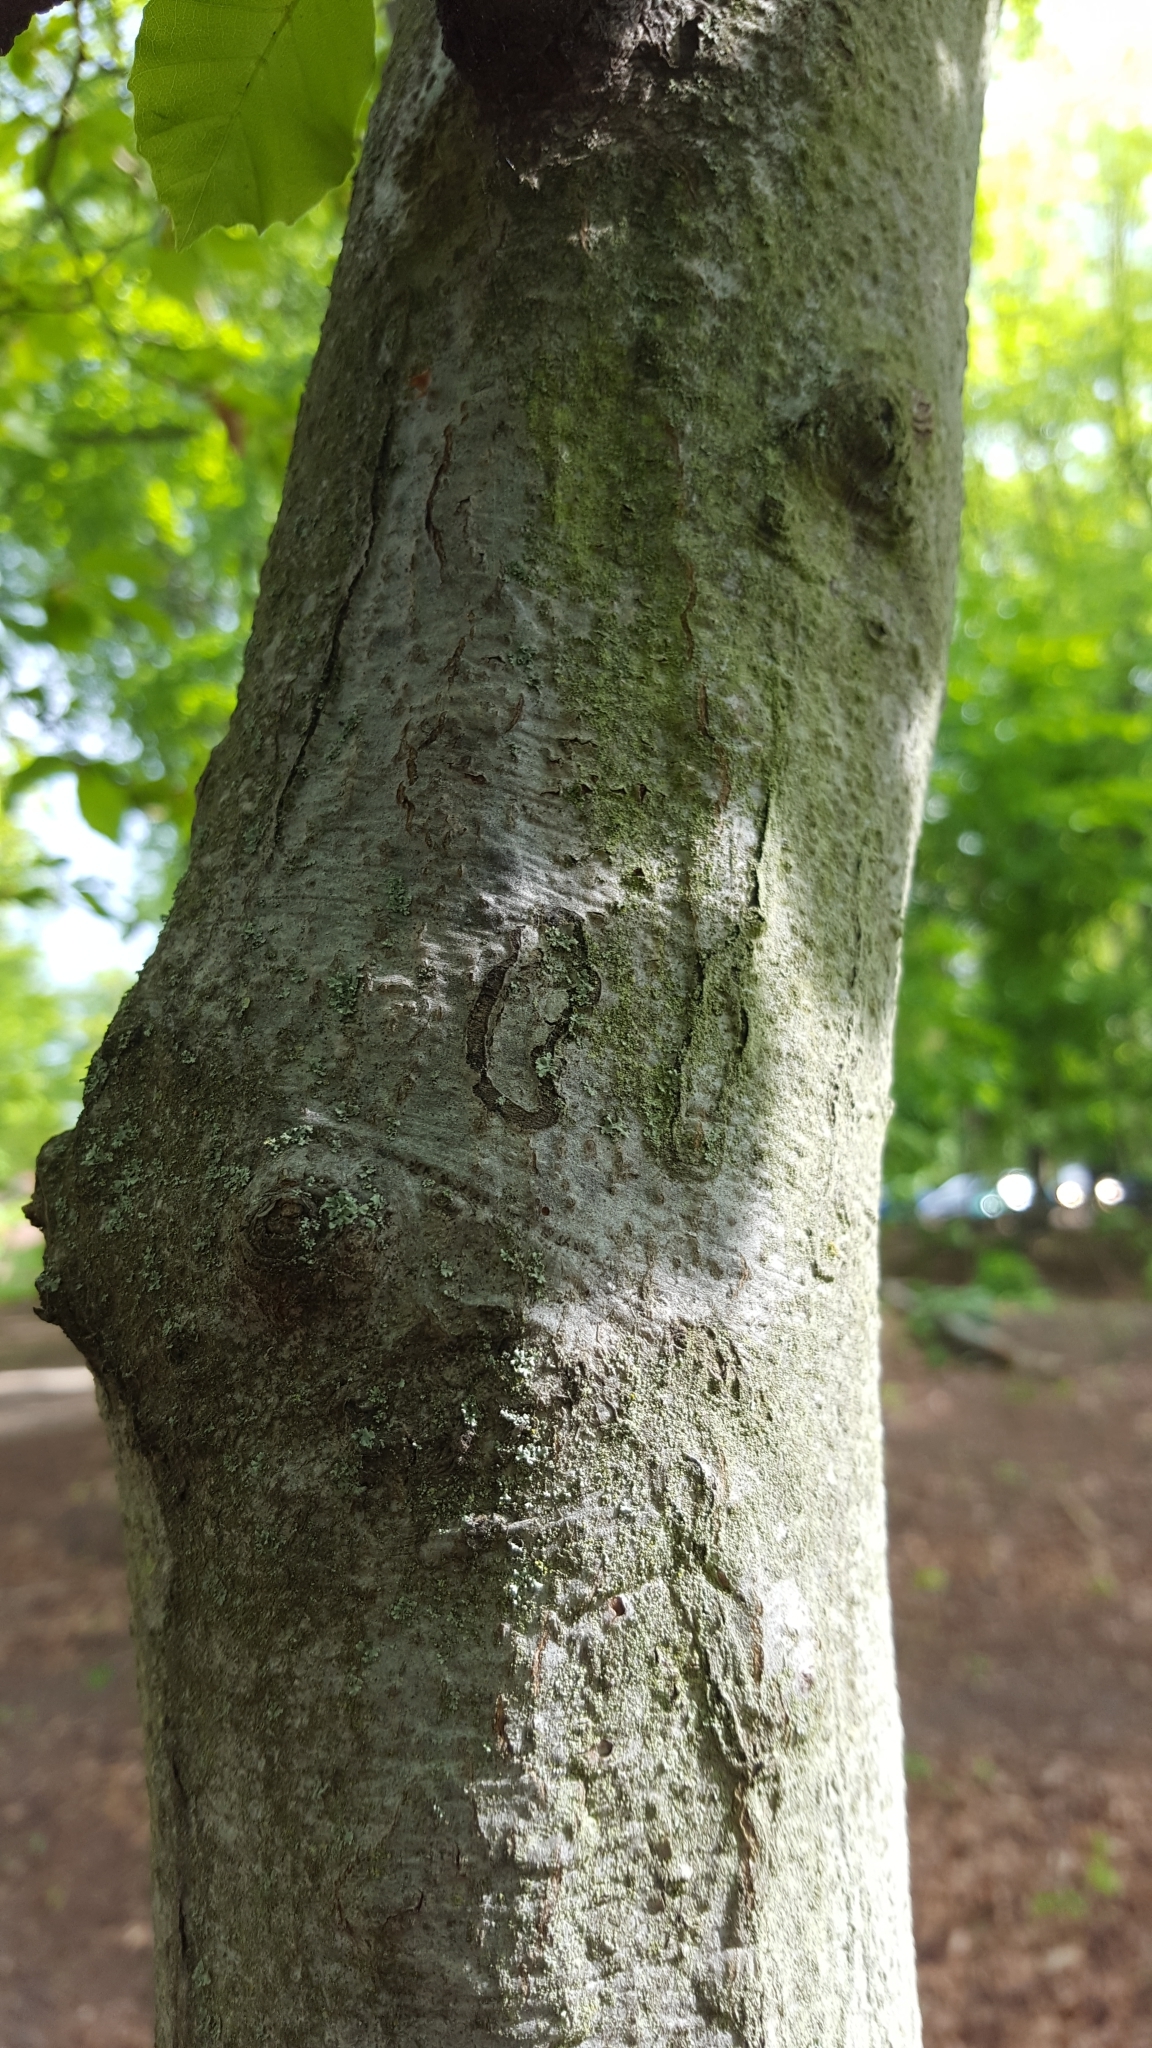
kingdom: Animalia
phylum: Arthropoda
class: Insecta
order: Lepidoptera
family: Nepticulidae
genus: Zimmermannia
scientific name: Zimmermannia liebwerdella
